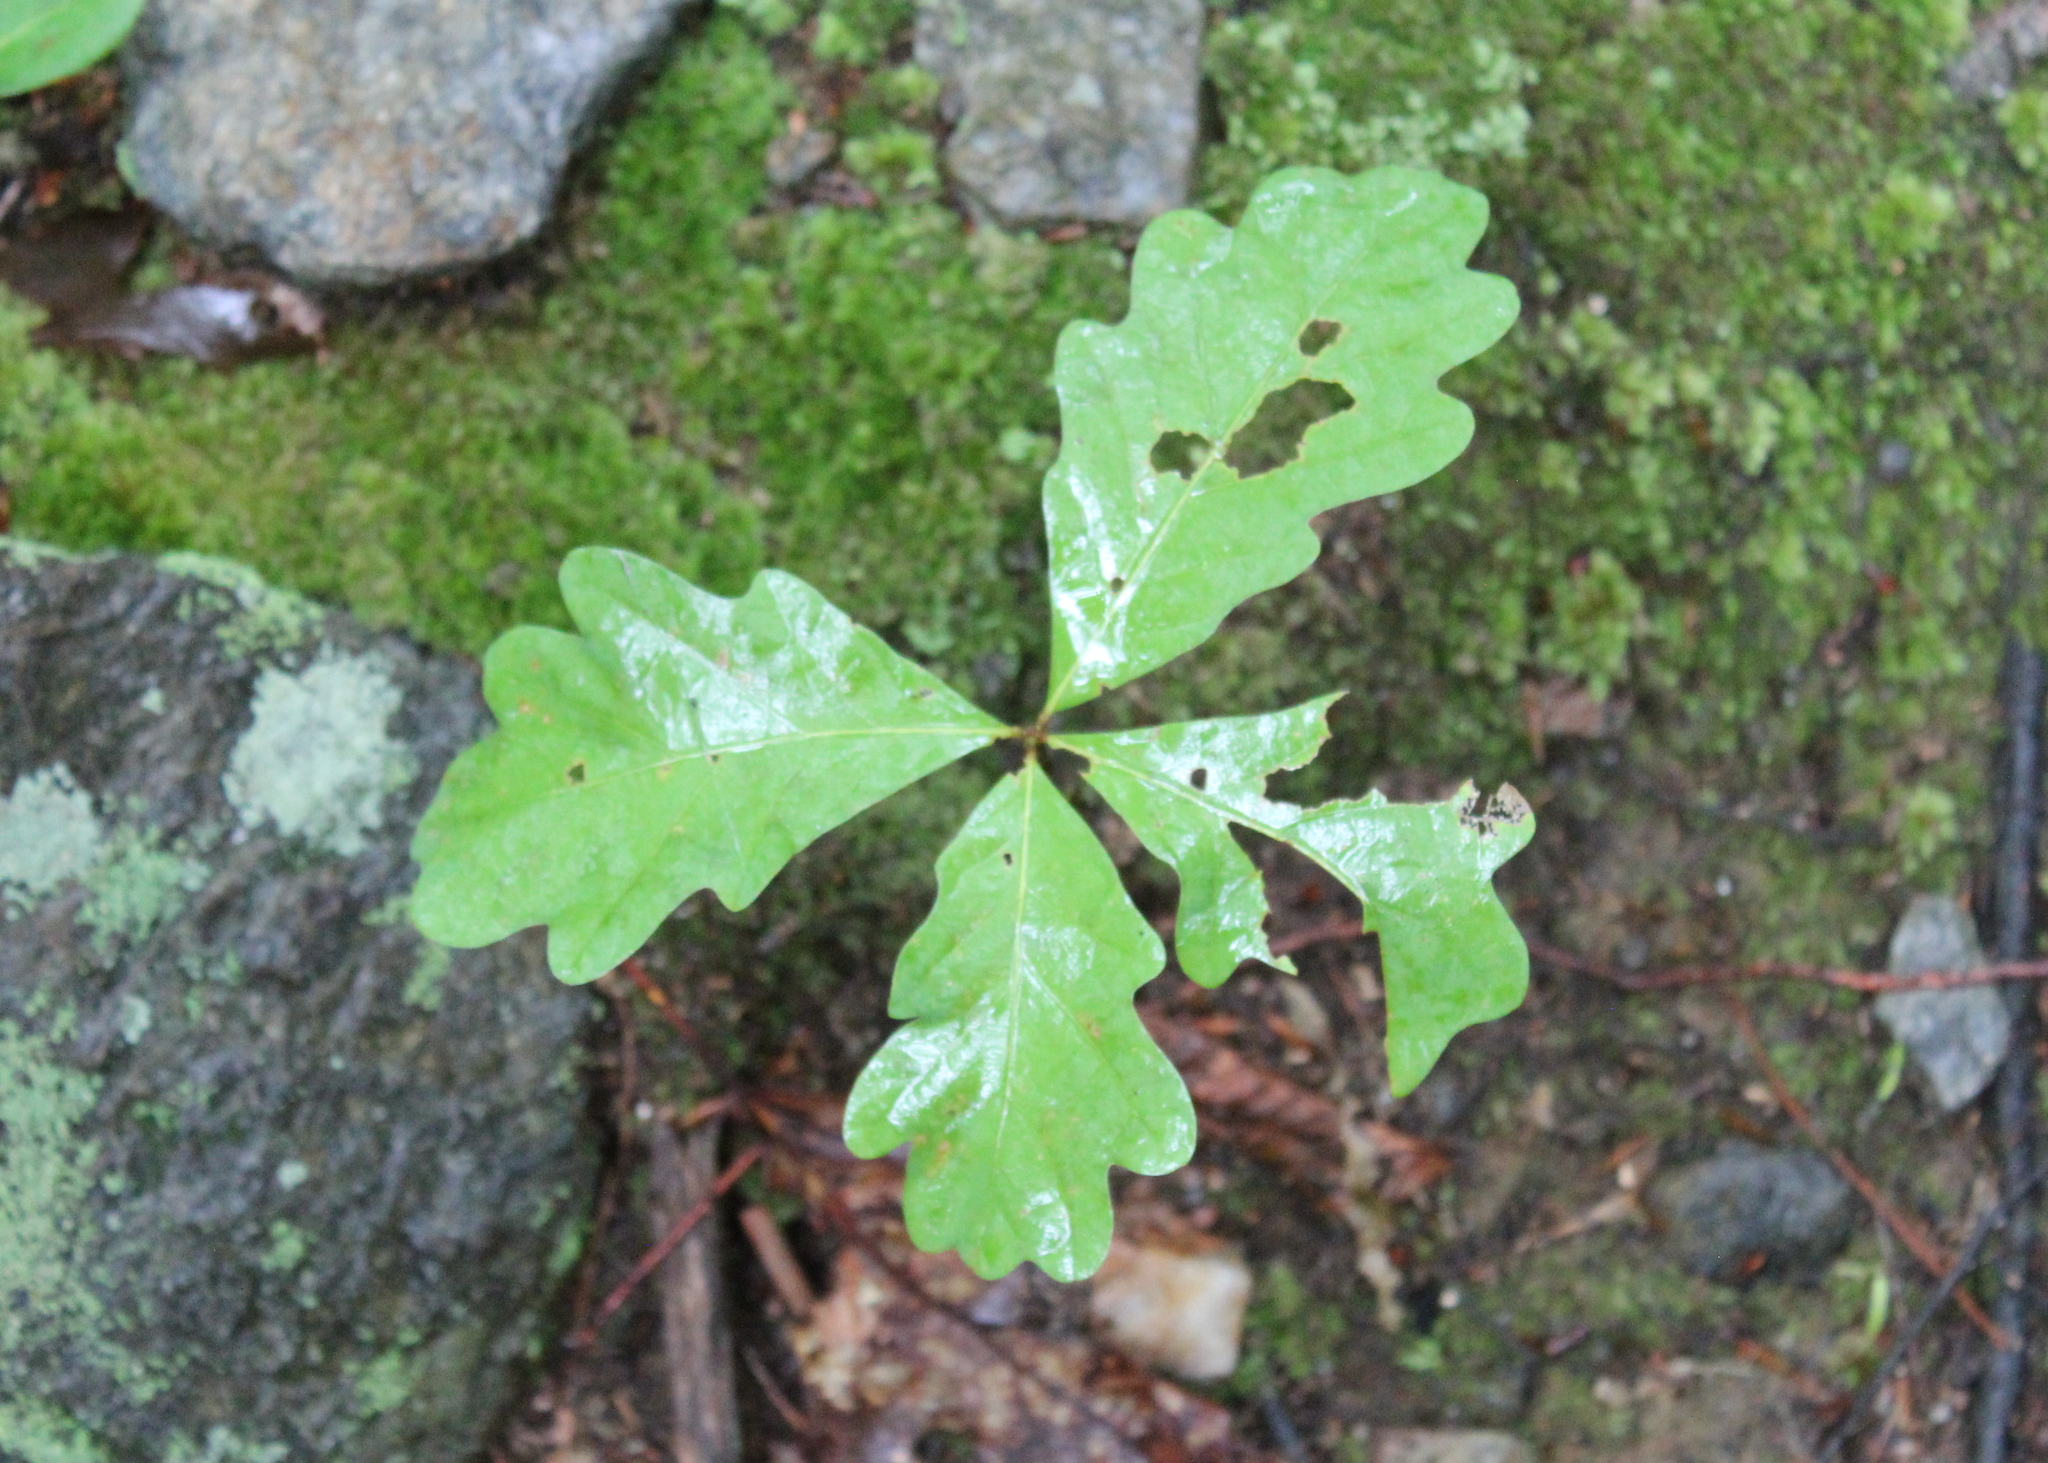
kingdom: Plantae
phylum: Tracheophyta
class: Magnoliopsida
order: Fagales
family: Fagaceae
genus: Quercus
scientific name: Quercus alba
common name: White oak
